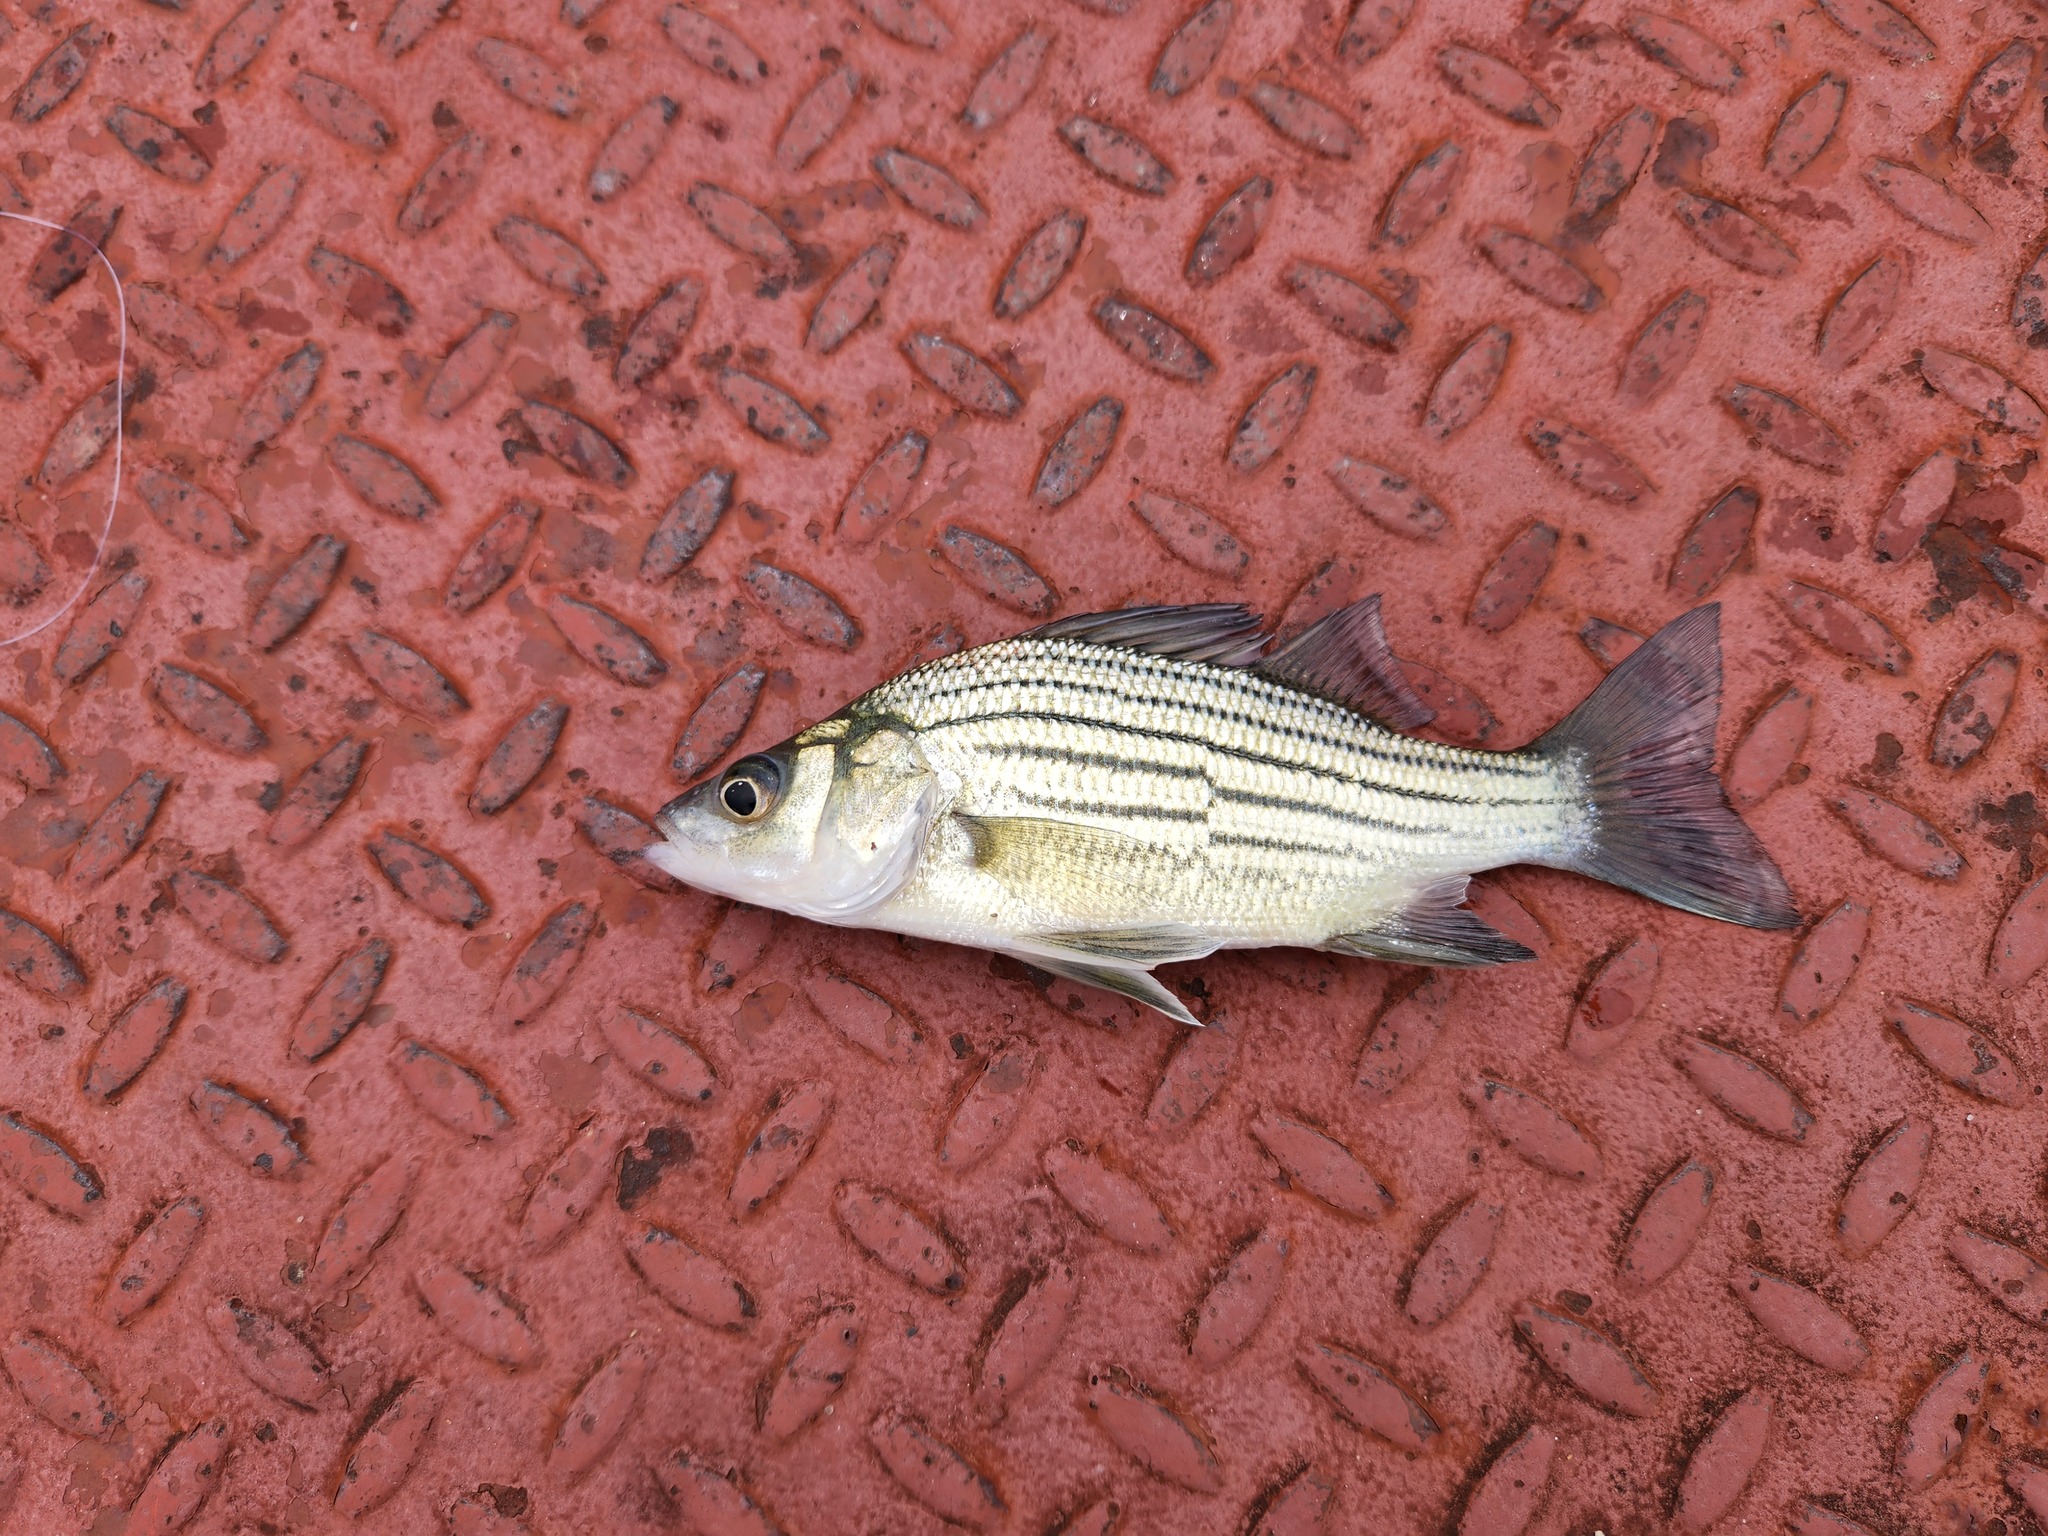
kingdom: Animalia
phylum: Chordata
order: Perciformes
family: Moronidae
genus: Morone
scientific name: Morone mississippiensis
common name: Yellow bass
